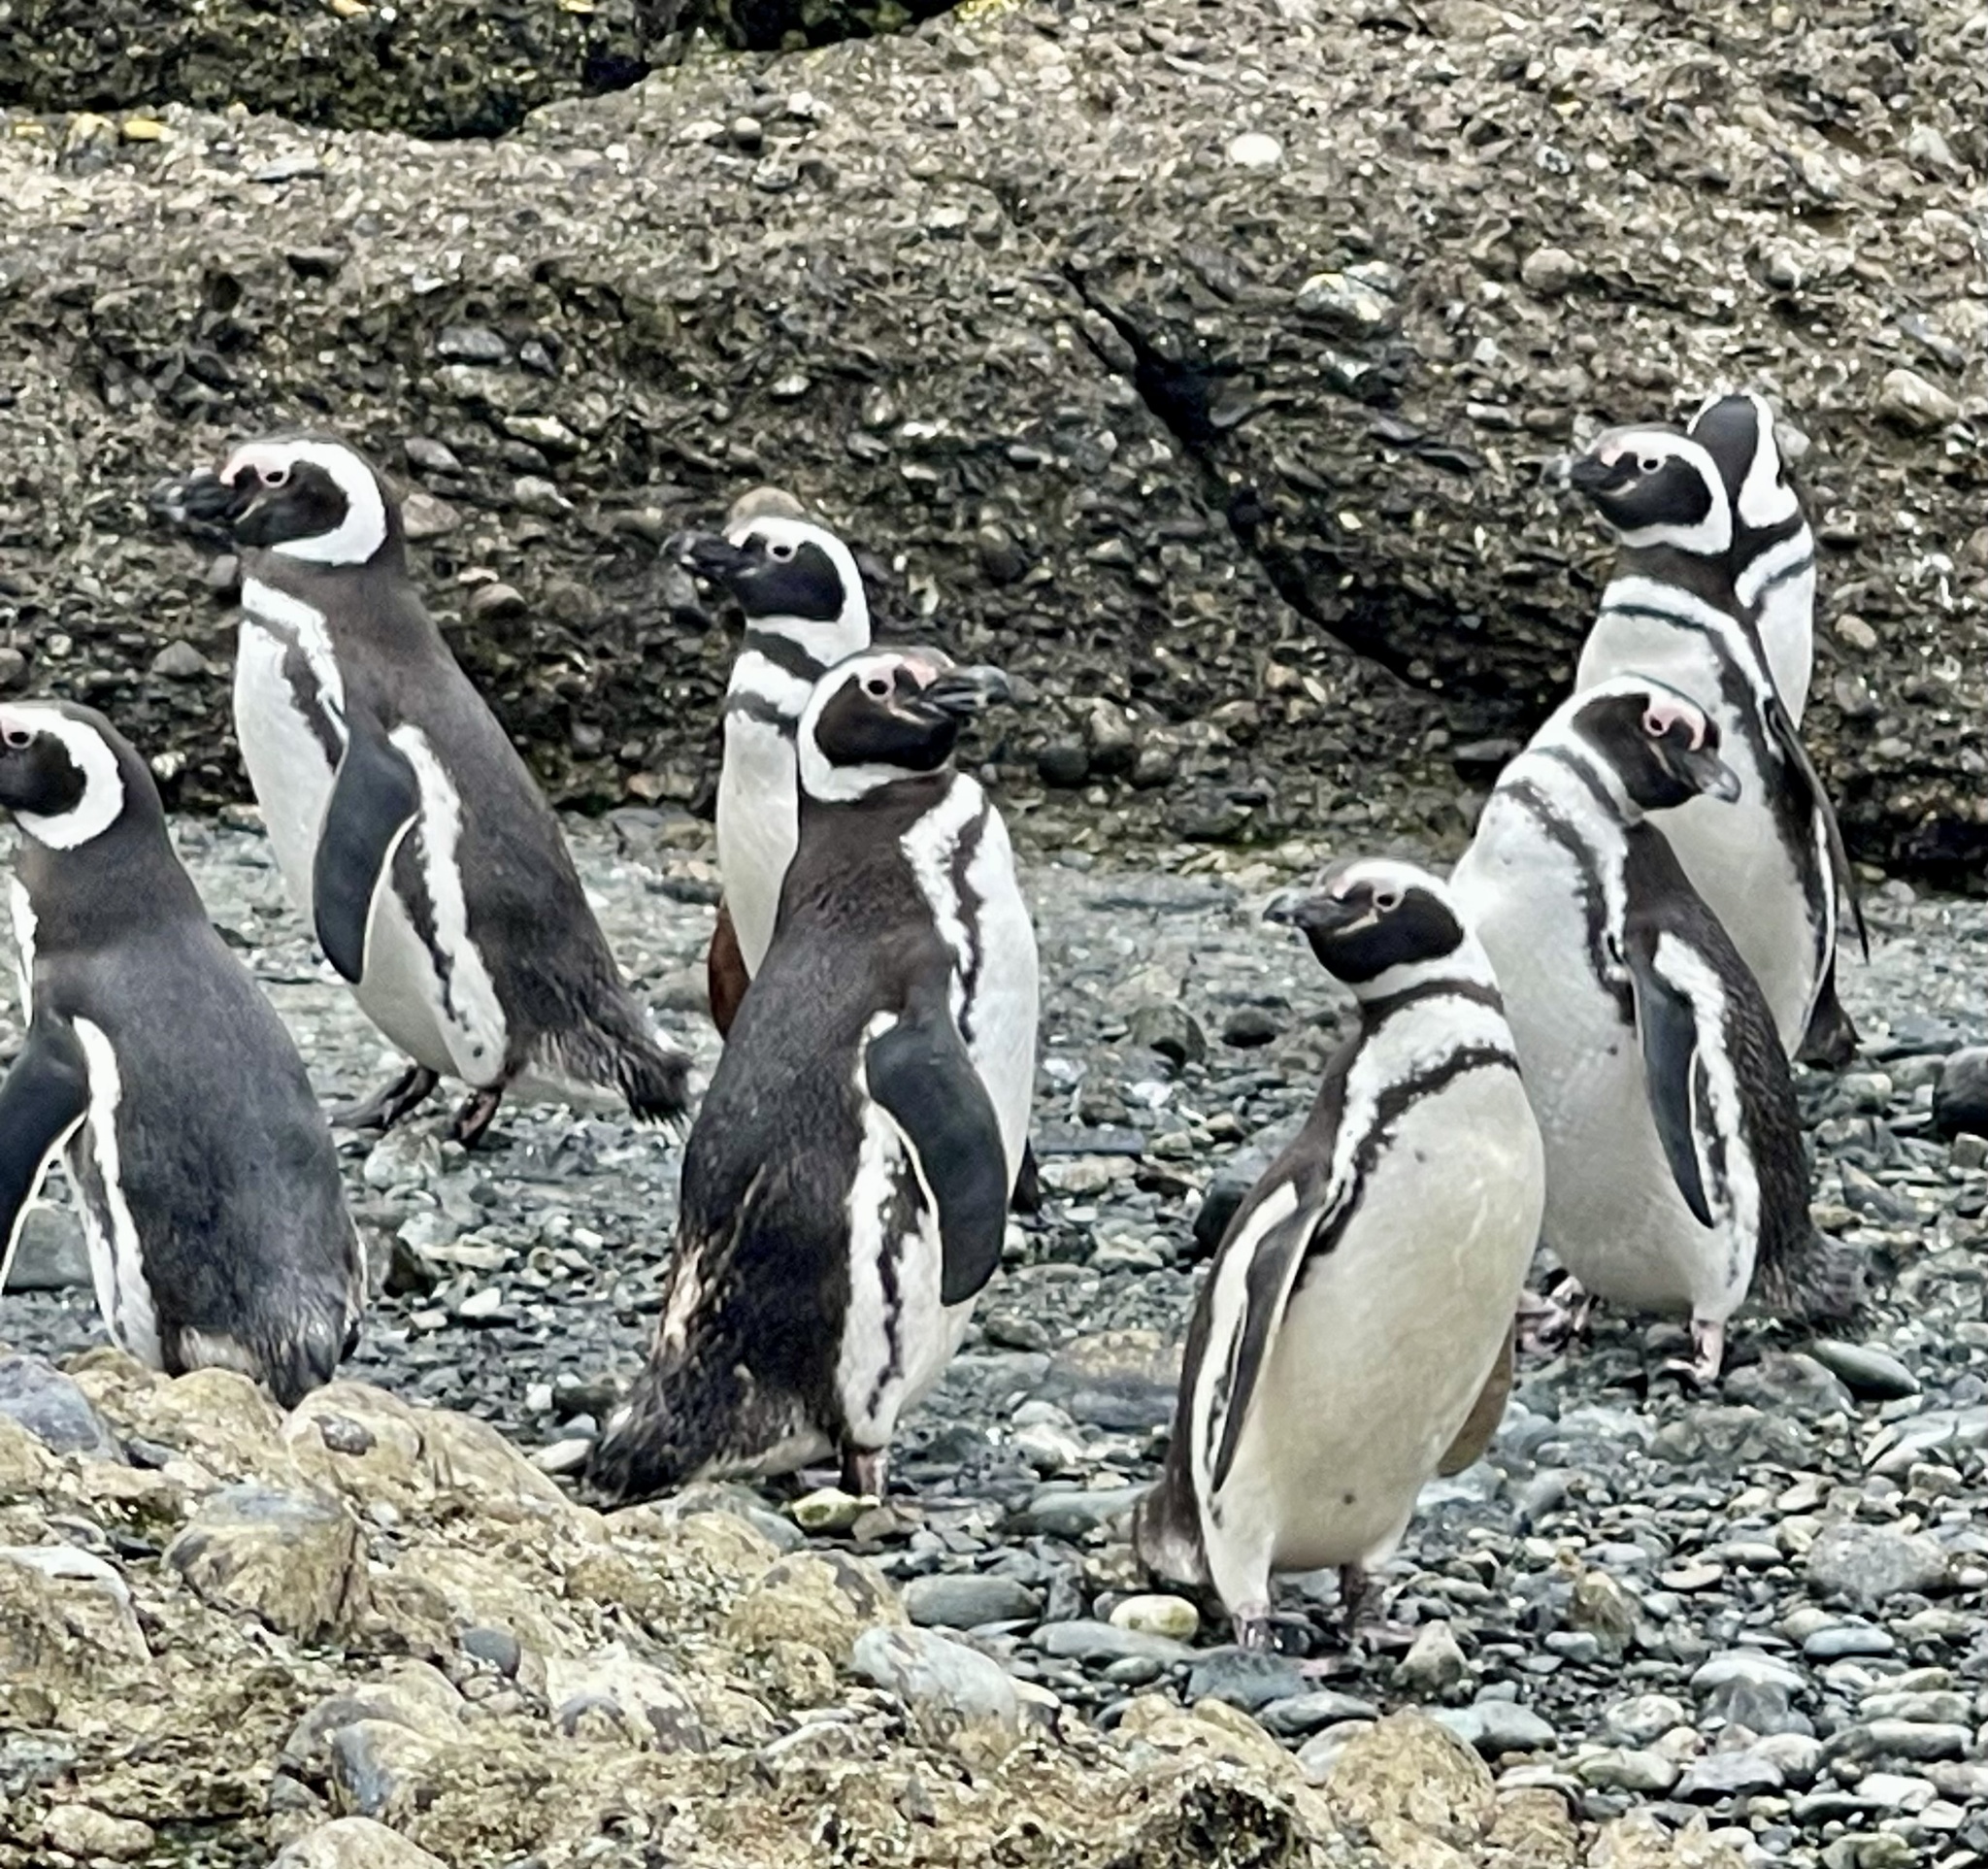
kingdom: Animalia
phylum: Chordata
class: Aves
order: Sphenisciformes
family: Spheniscidae
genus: Spheniscus
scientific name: Spheniscus magellanicus
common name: Magellanic penguin
